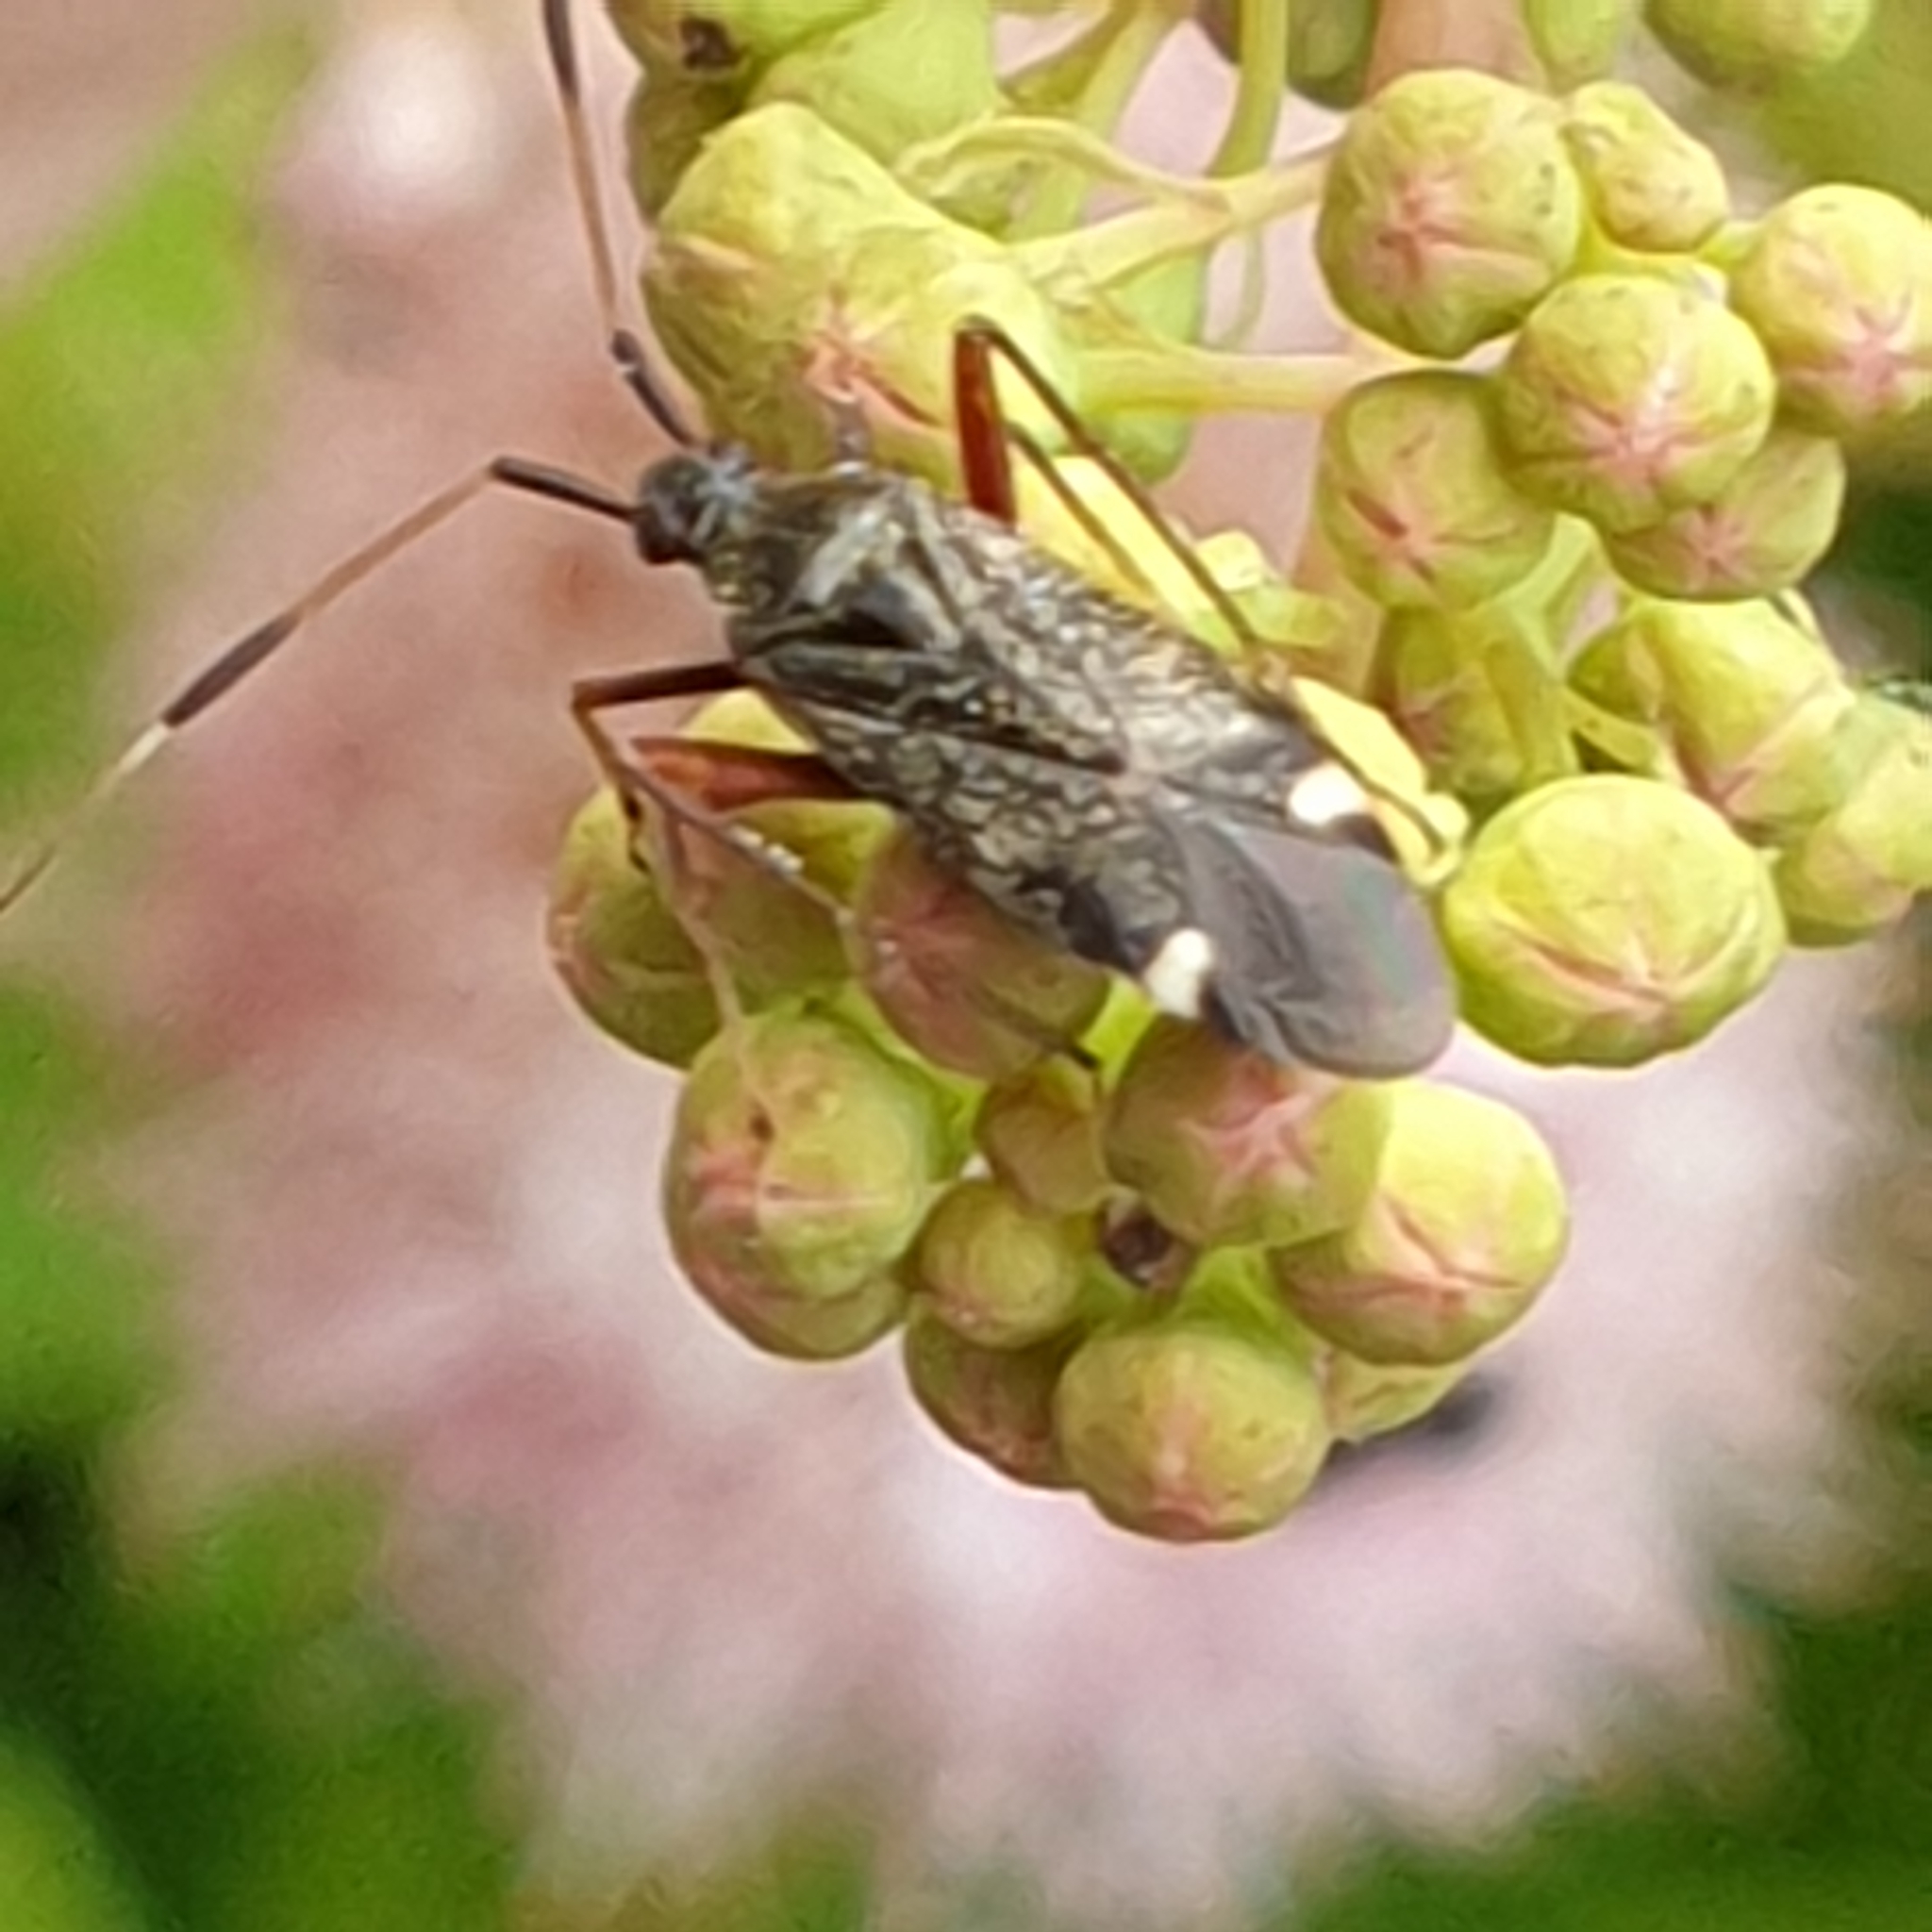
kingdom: Animalia
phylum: Arthropoda
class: Insecta
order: Hemiptera
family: Miridae
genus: Closterotomus
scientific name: Closterotomus biclavatus
